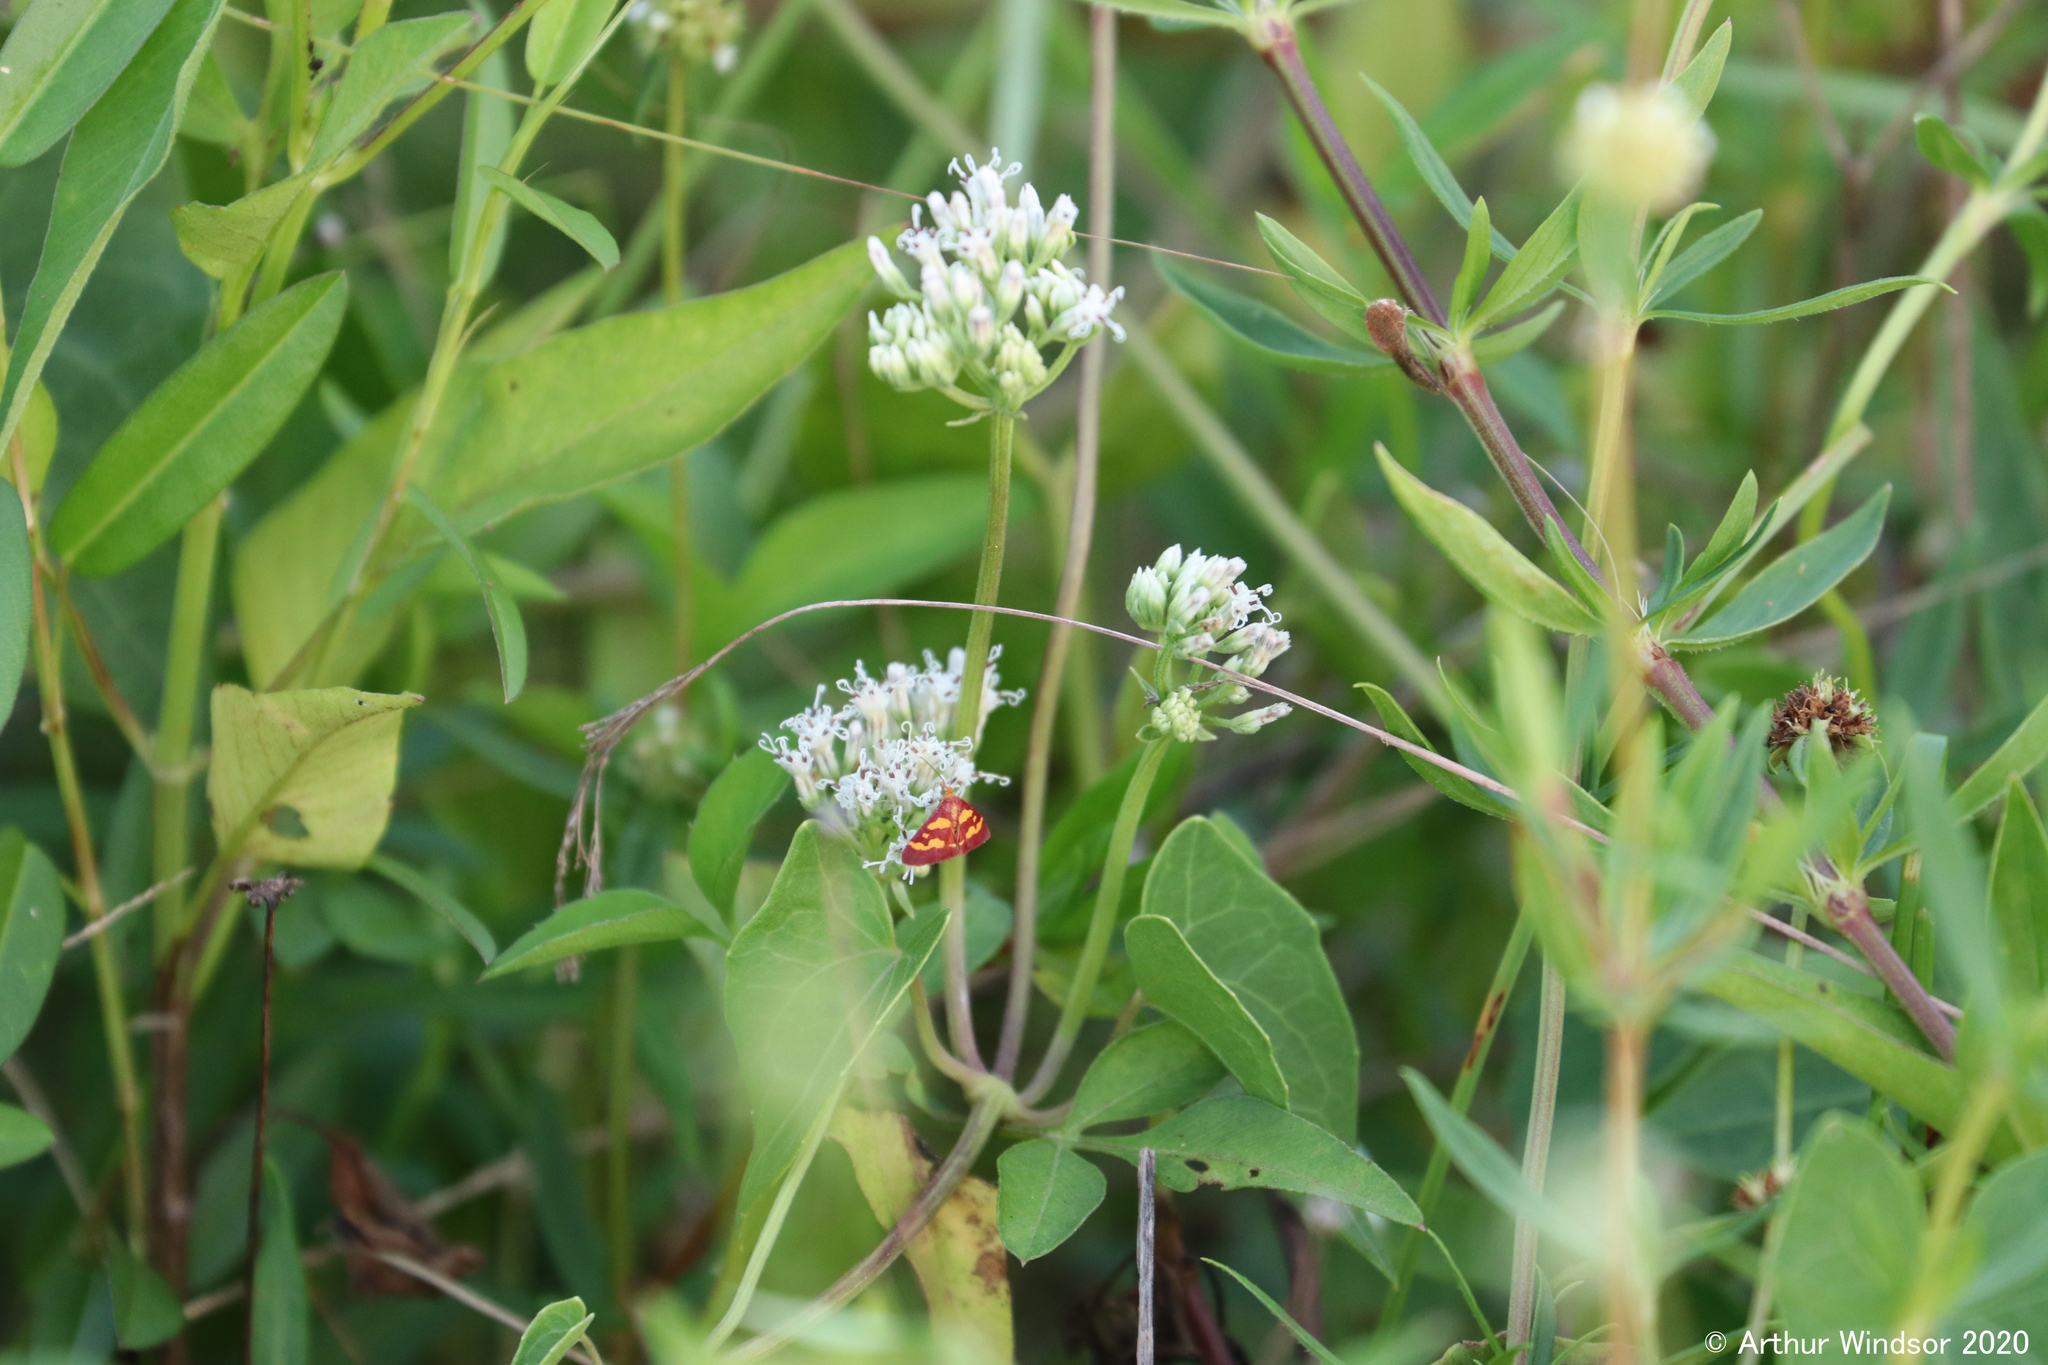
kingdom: Animalia
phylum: Arthropoda
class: Insecta
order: Lepidoptera
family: Crambidae
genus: Pyrausta
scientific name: Pyrausta tyralis
